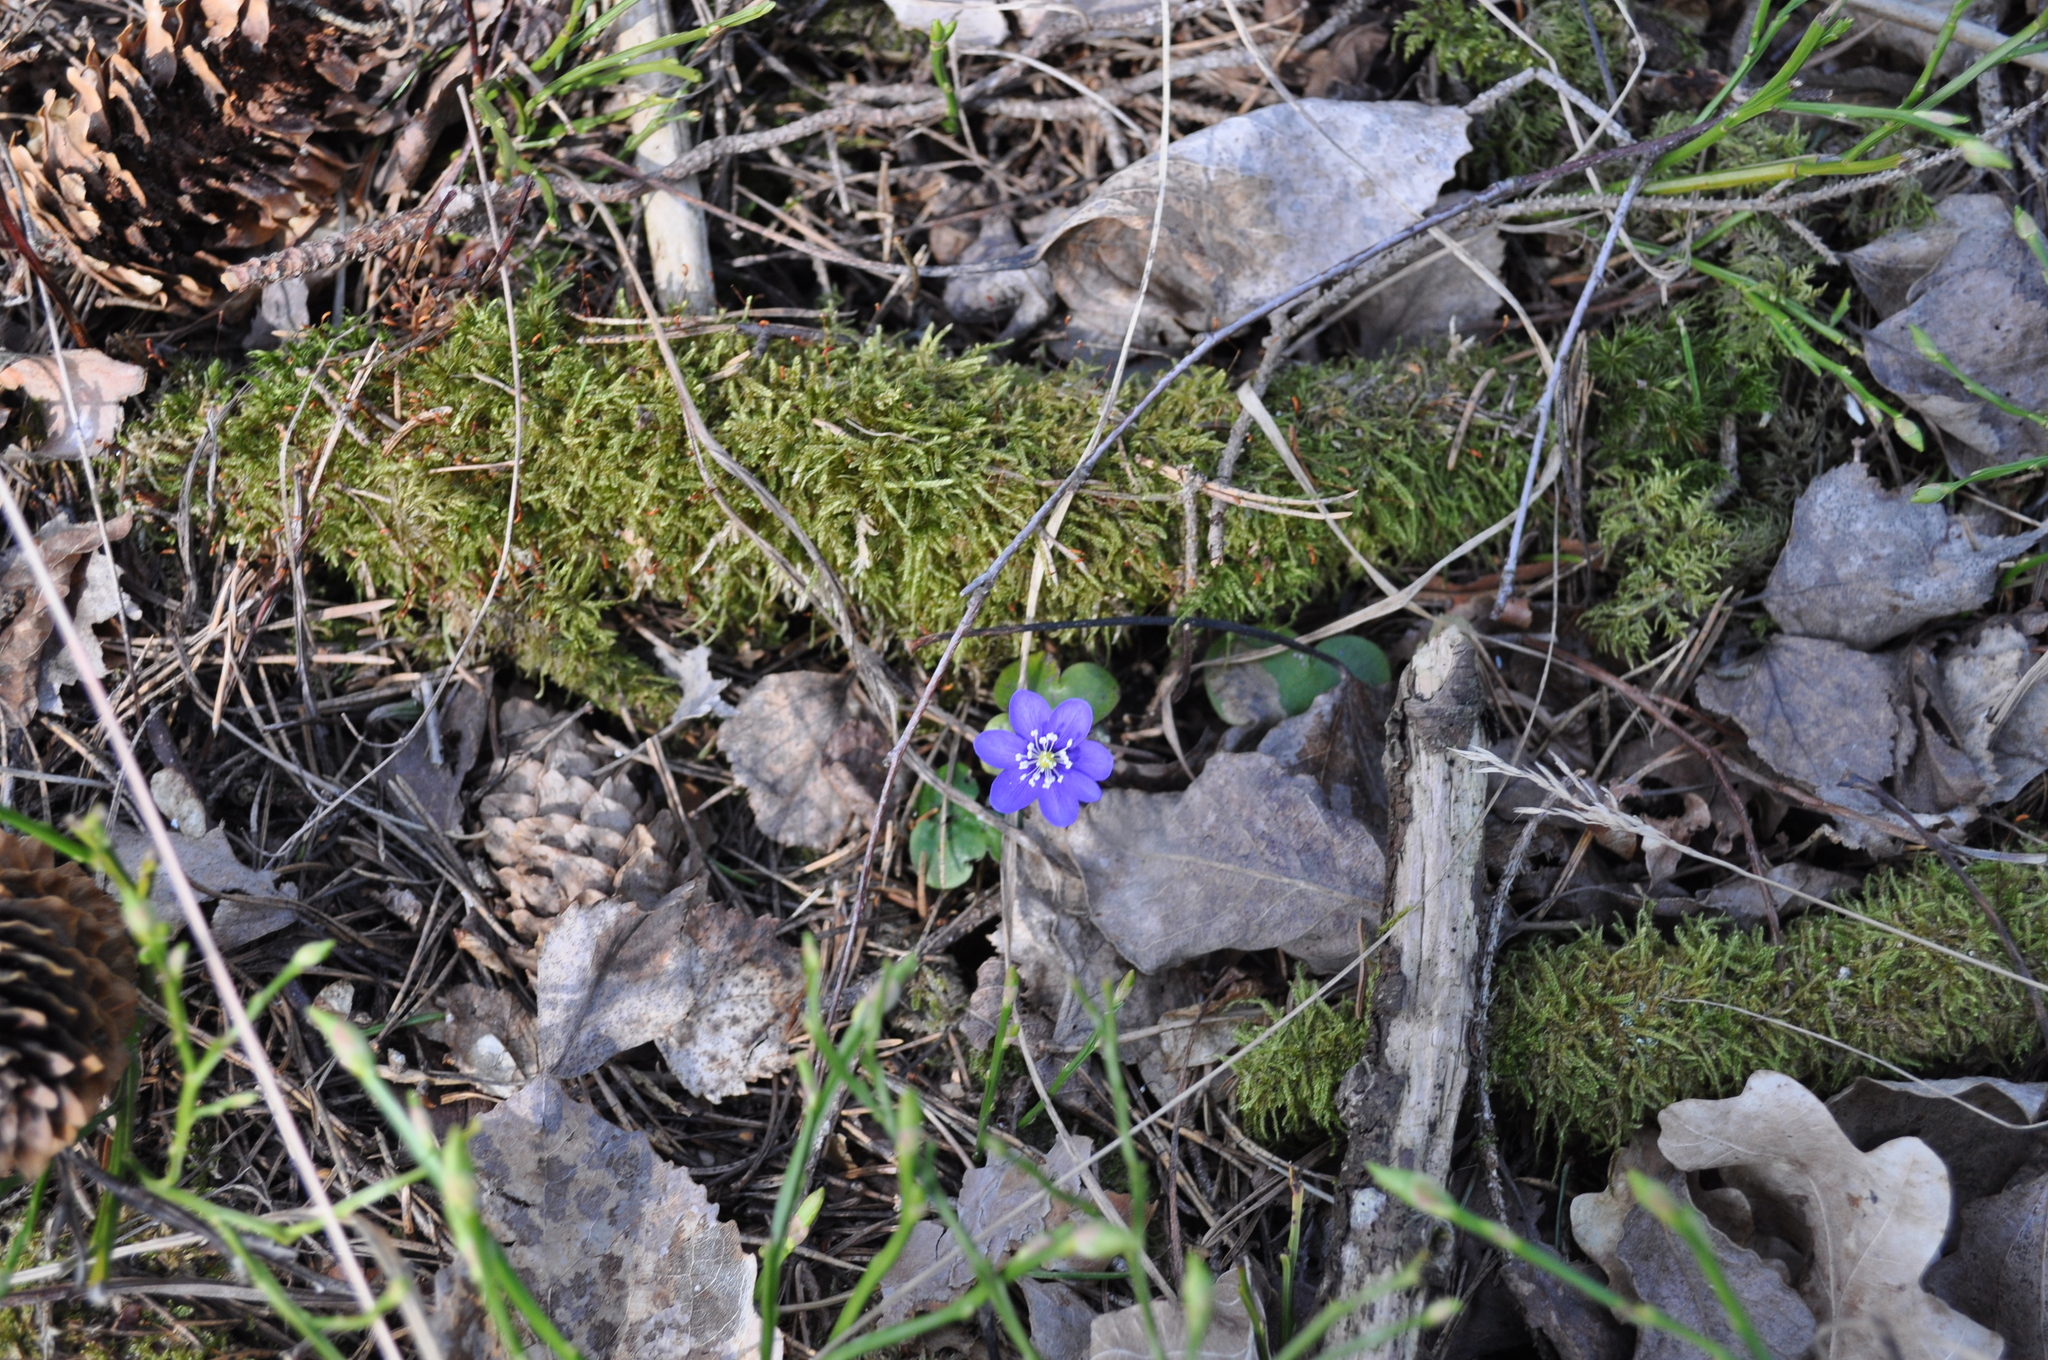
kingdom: Plantae
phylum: Tracheophyta
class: Magnoliopsida
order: Ranunculales
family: Ranunculaceae
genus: Hepatica
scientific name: Hepatica nobilis
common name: Liverleaf
